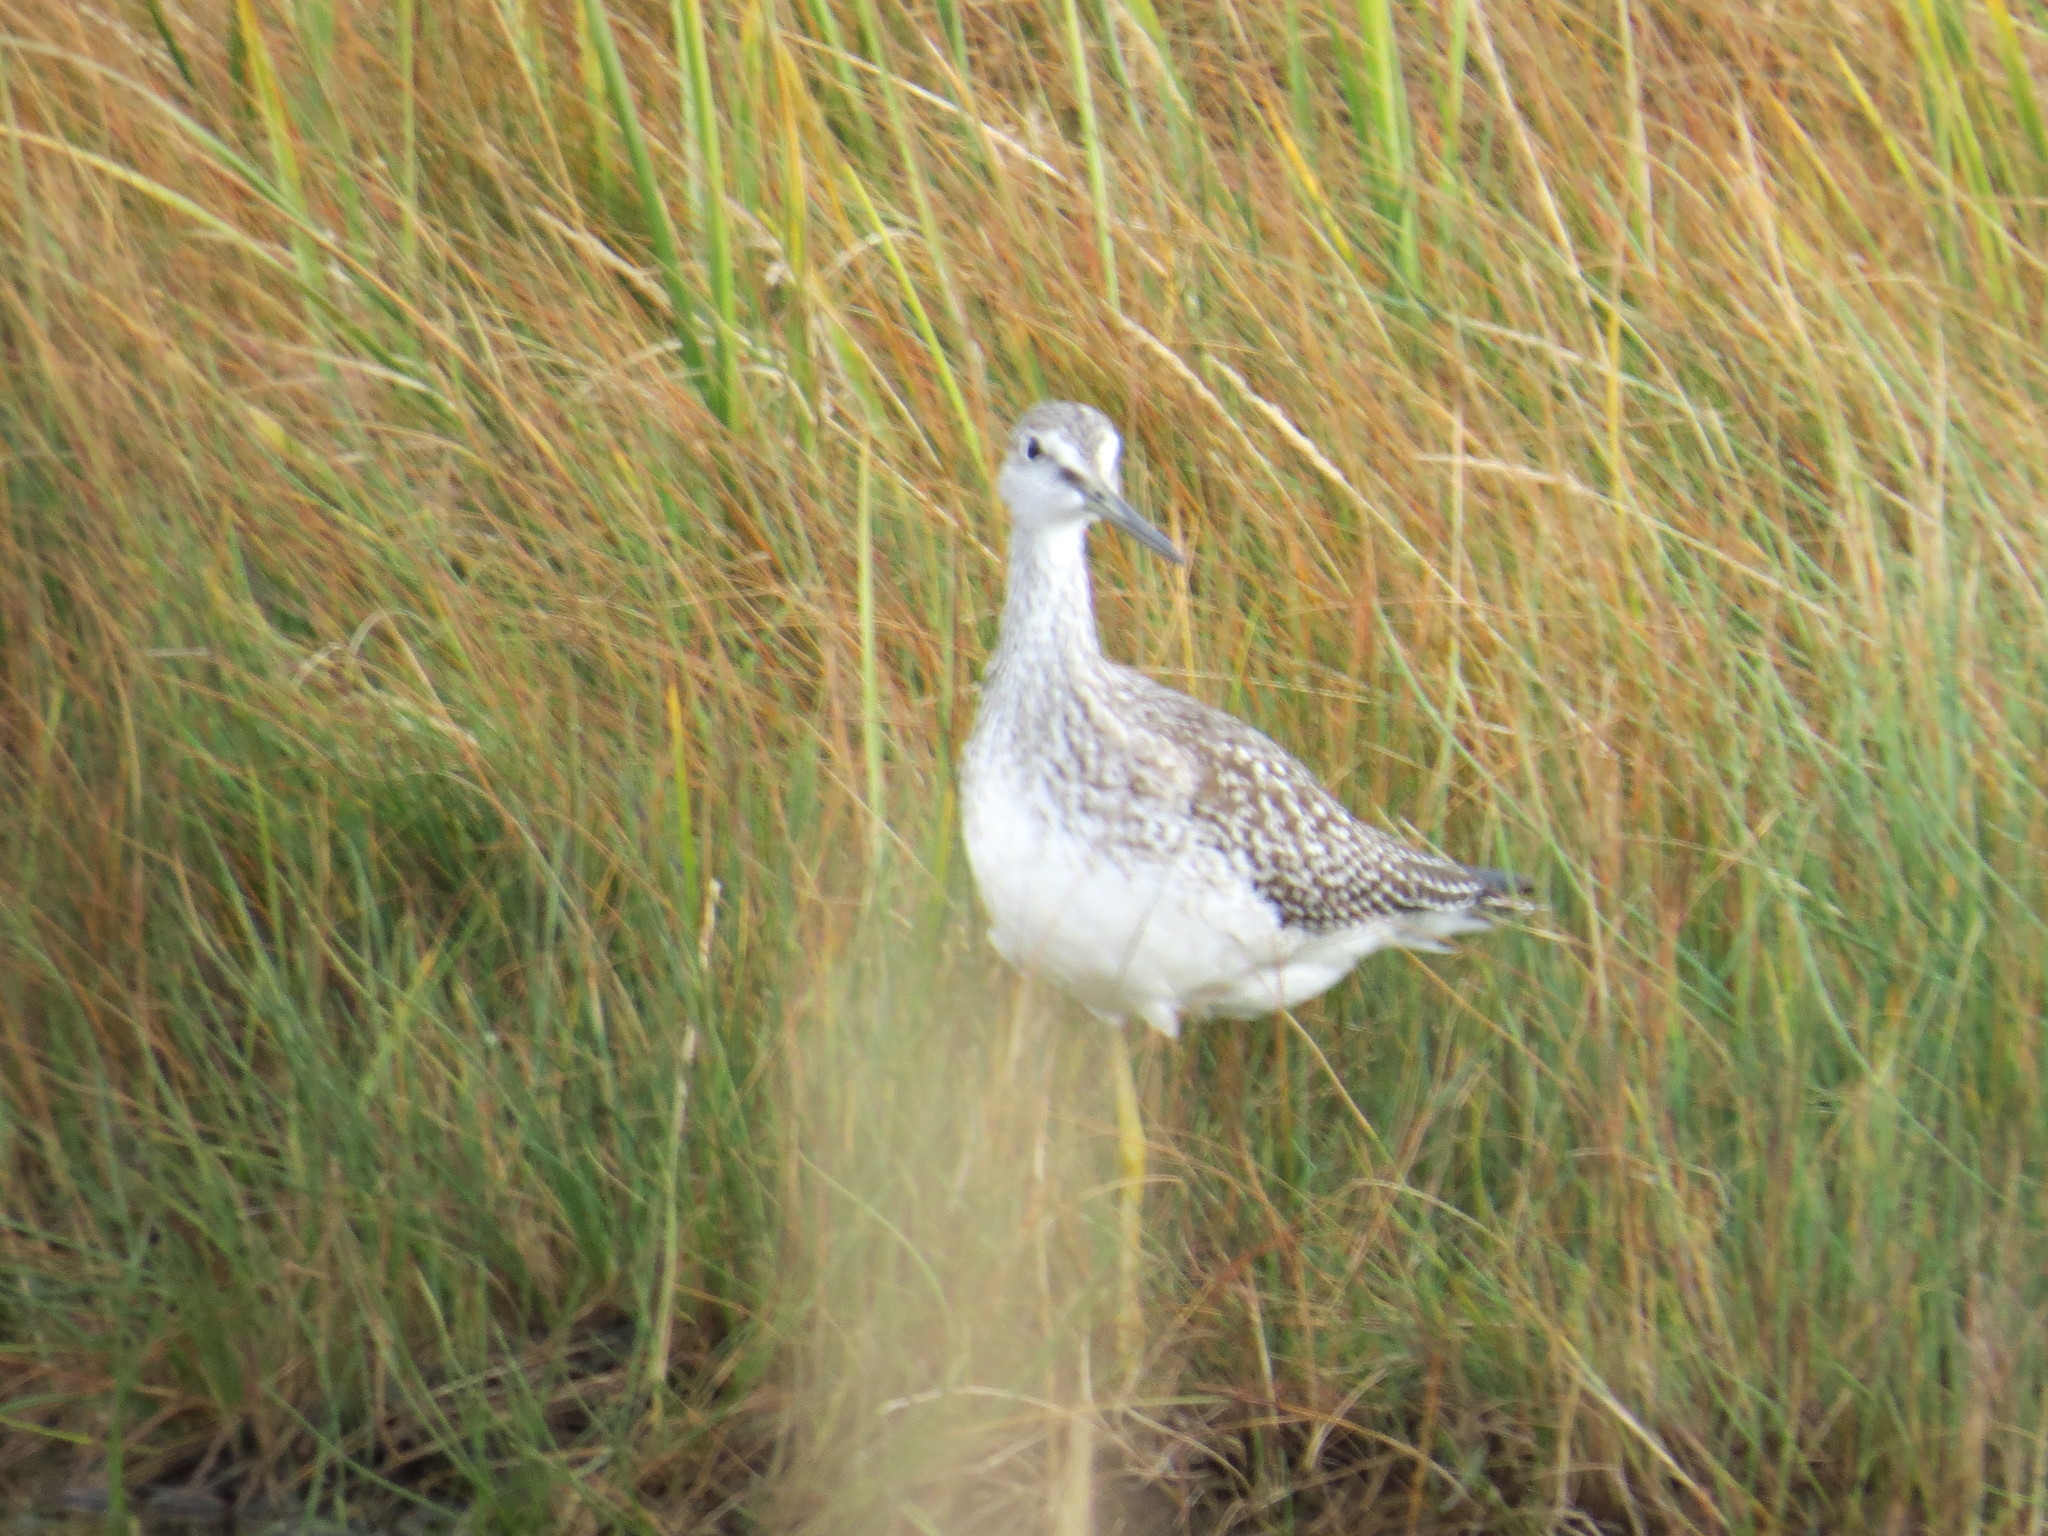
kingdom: Animalia
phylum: Chordata
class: Aves
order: Charadriiformes
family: Scolopacidae
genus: Tringa
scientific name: Tringa melanoleuca
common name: Greater yellowlegs
